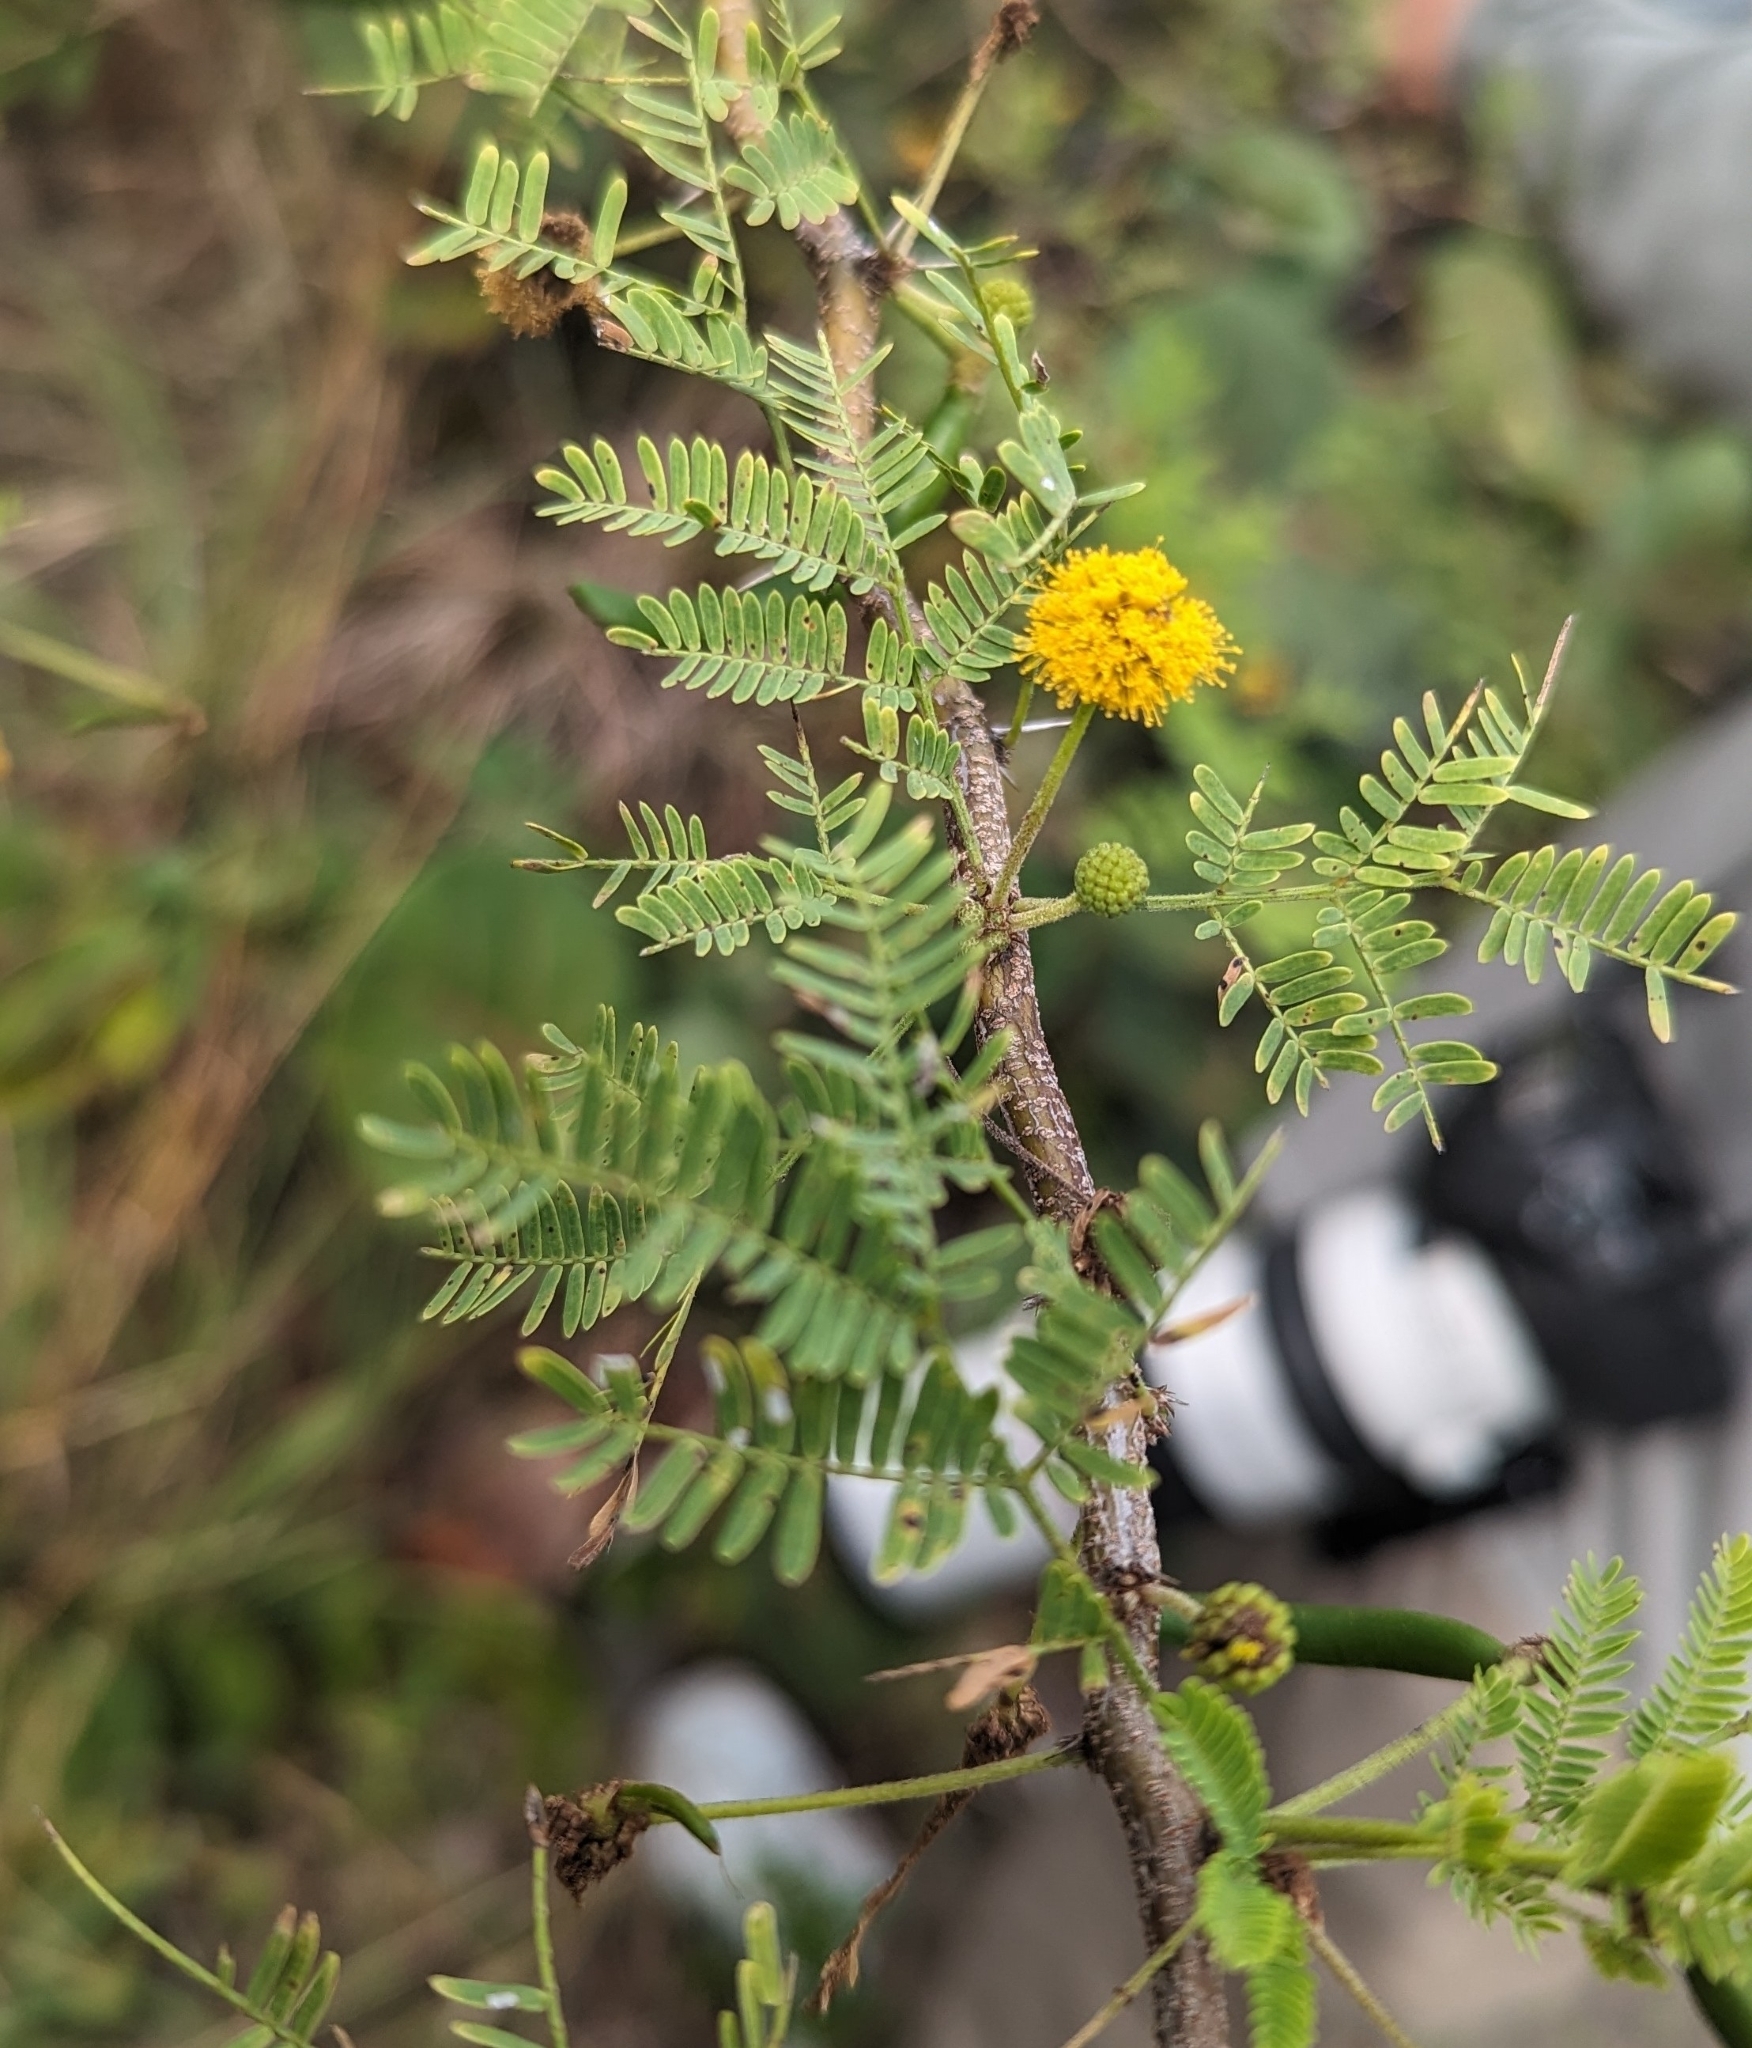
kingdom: Plantae
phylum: Tracheophyta
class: Magnoliopsida
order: Fabales
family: Fabaceae
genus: Vachellia
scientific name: Vachellia farnesiana
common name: Sweet acacia
